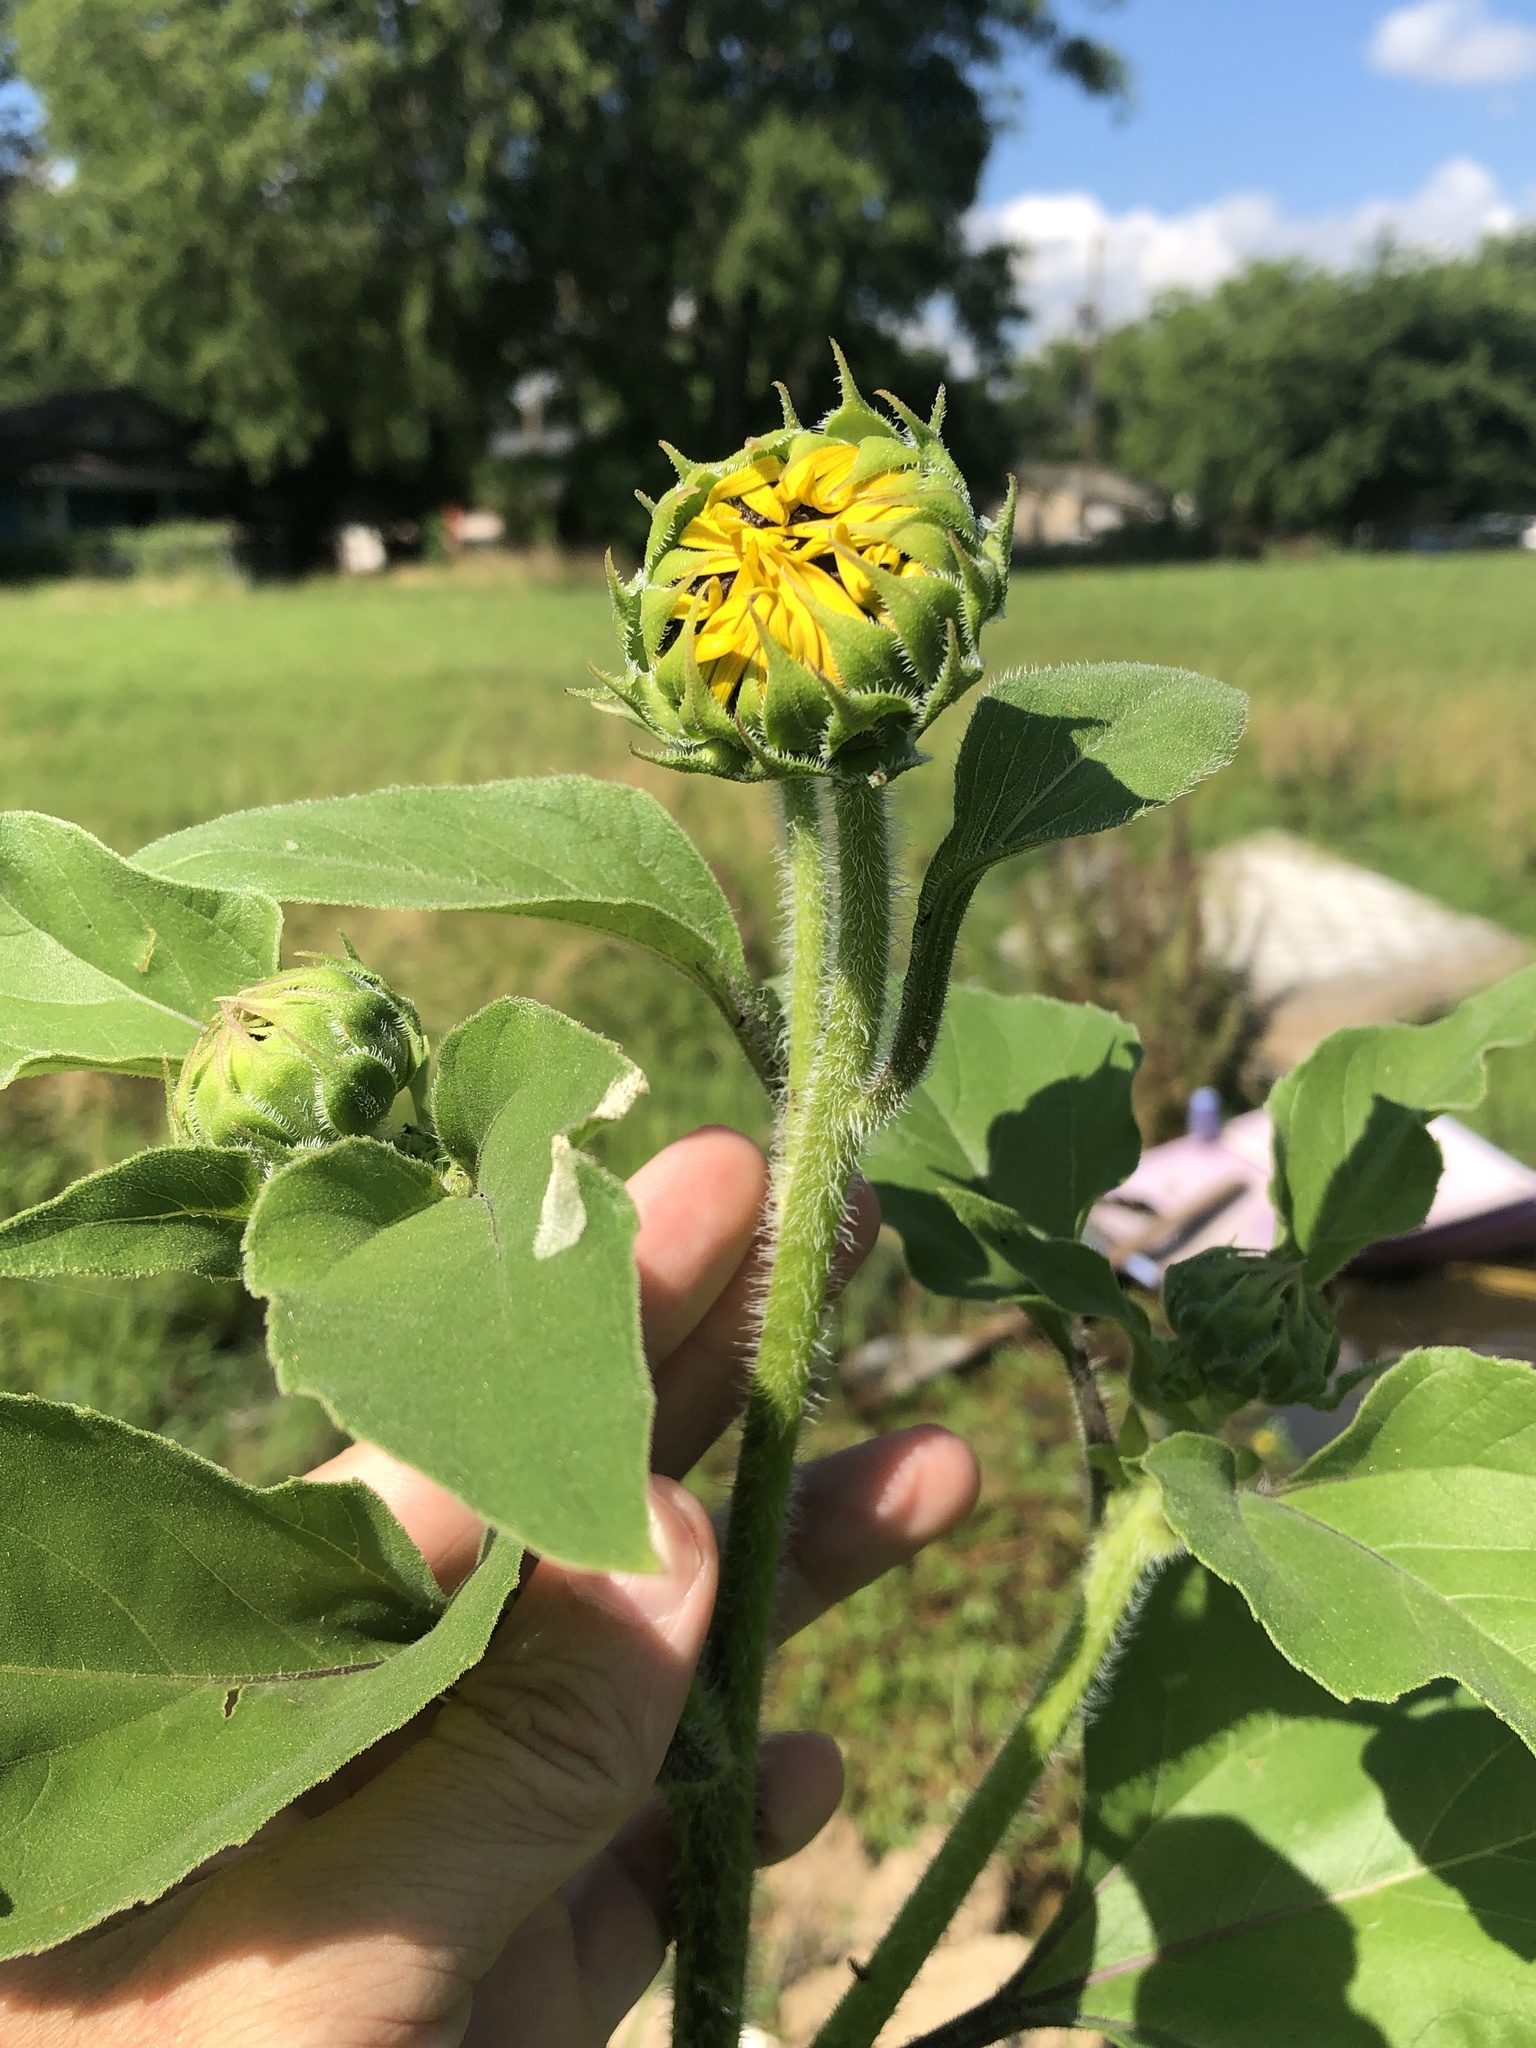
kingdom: Plantae
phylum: Tracheophyta
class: Magnoliopsida
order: Asterales
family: Asteraceae
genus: Helianthus
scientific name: Helianthus annuus
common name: Sunflower
